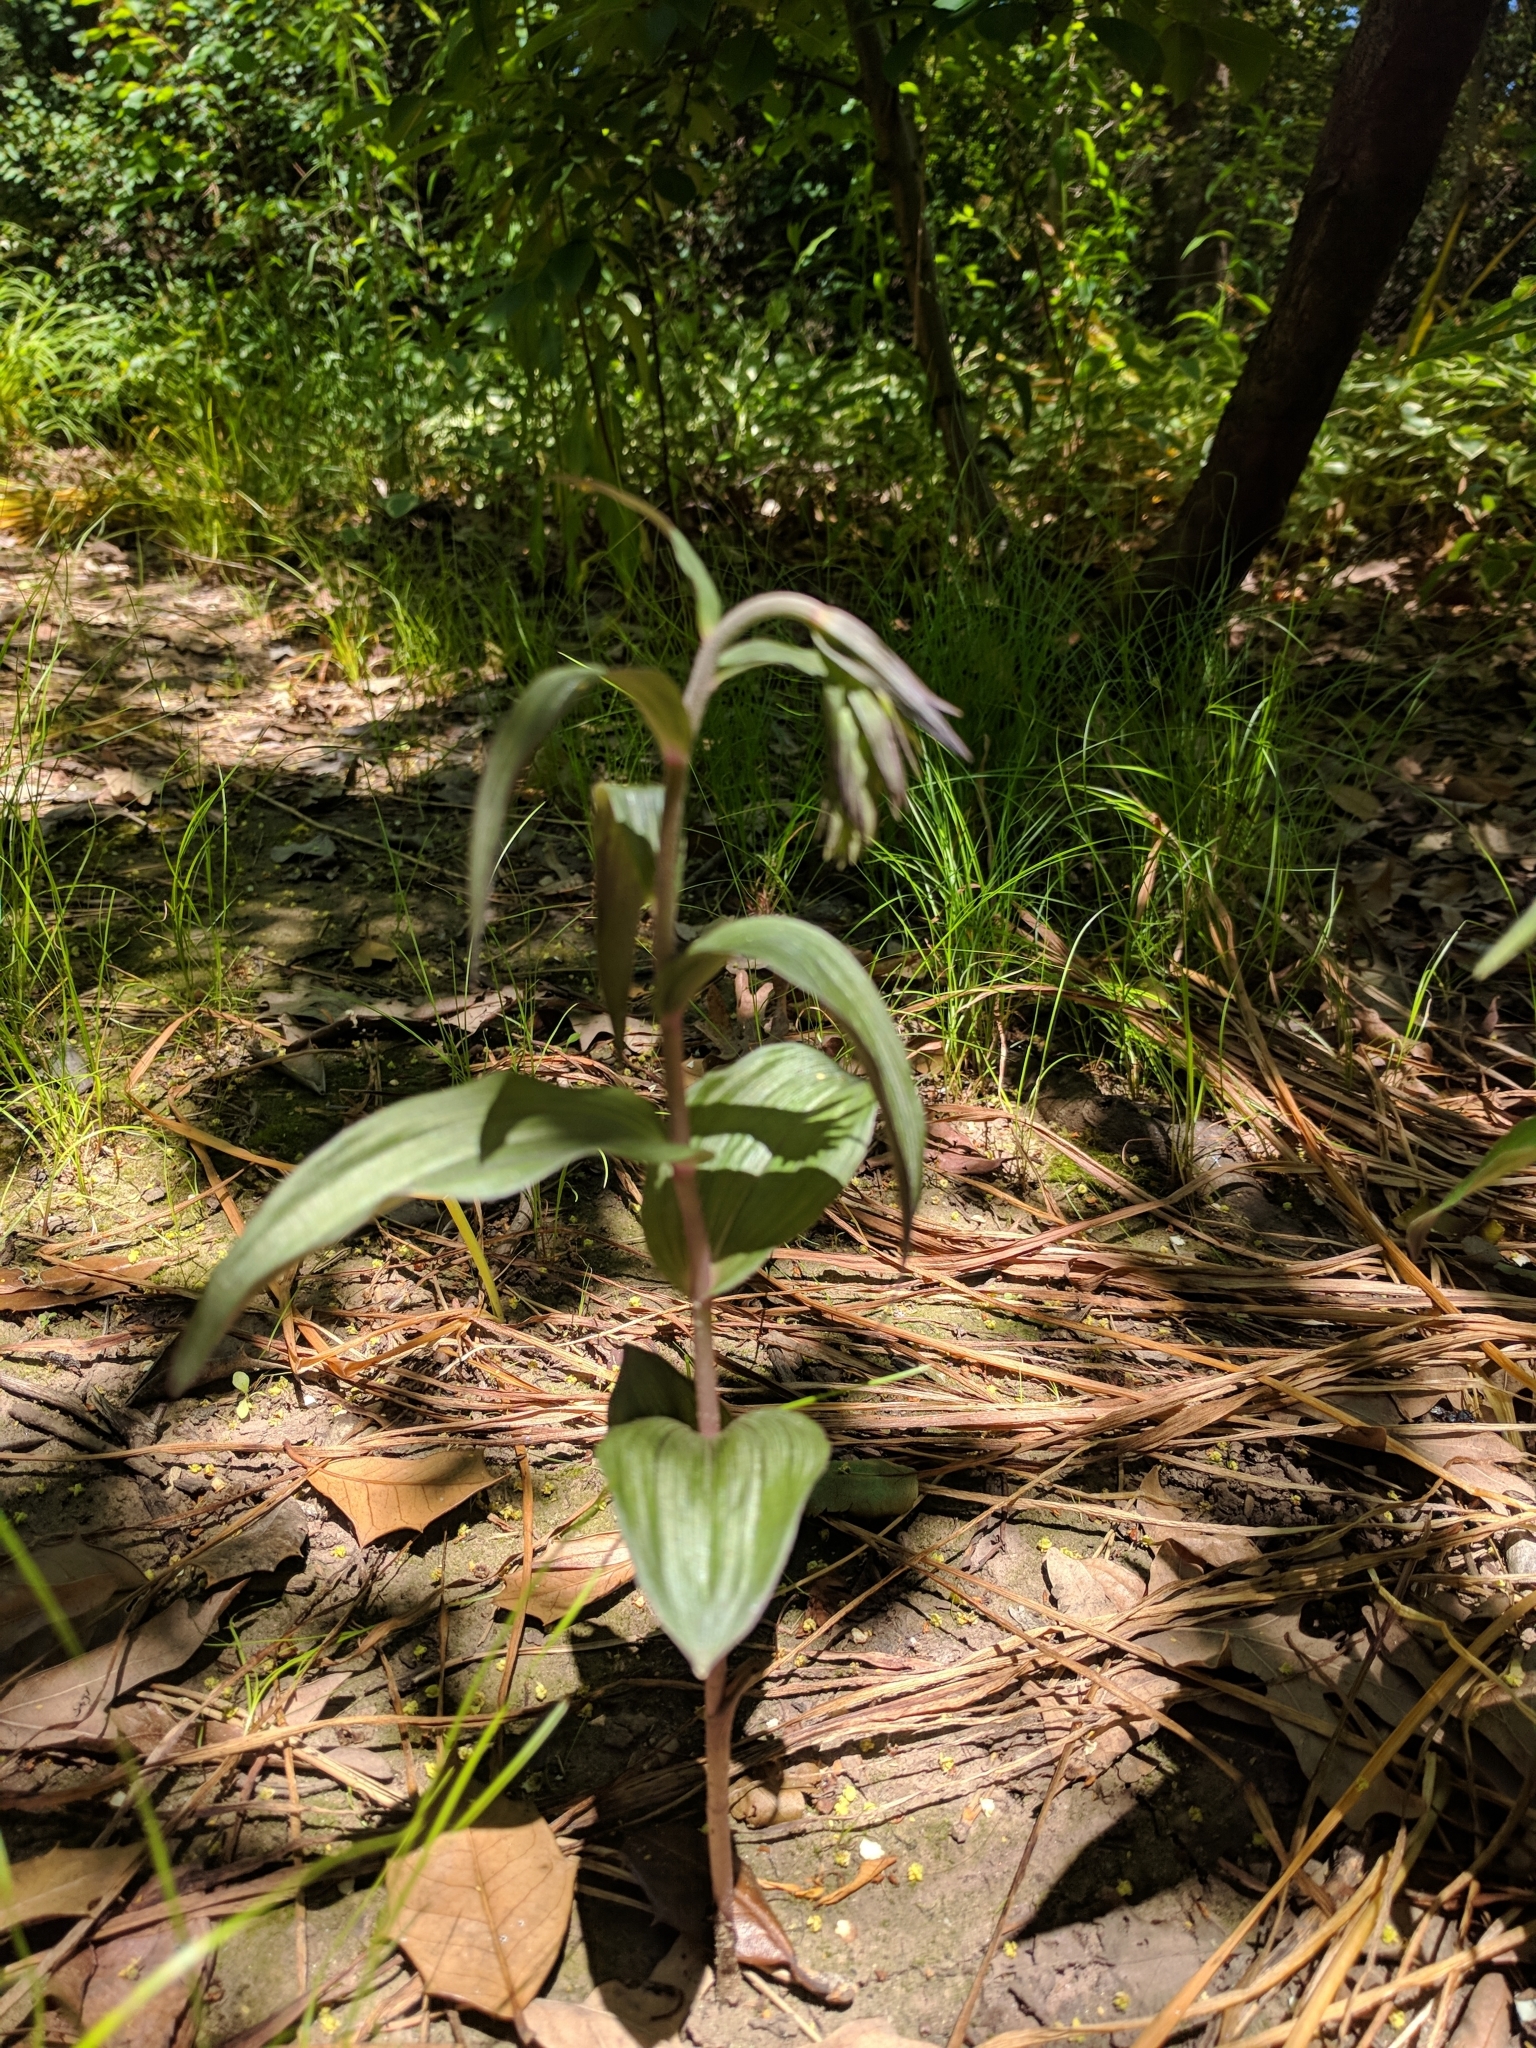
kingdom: Plantae
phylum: Tracheophyta
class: Liliopsida
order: Asparagales
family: Orchidaceae
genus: Epipactis
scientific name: Epipactis helleborine
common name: Broad-leaved helleborine
